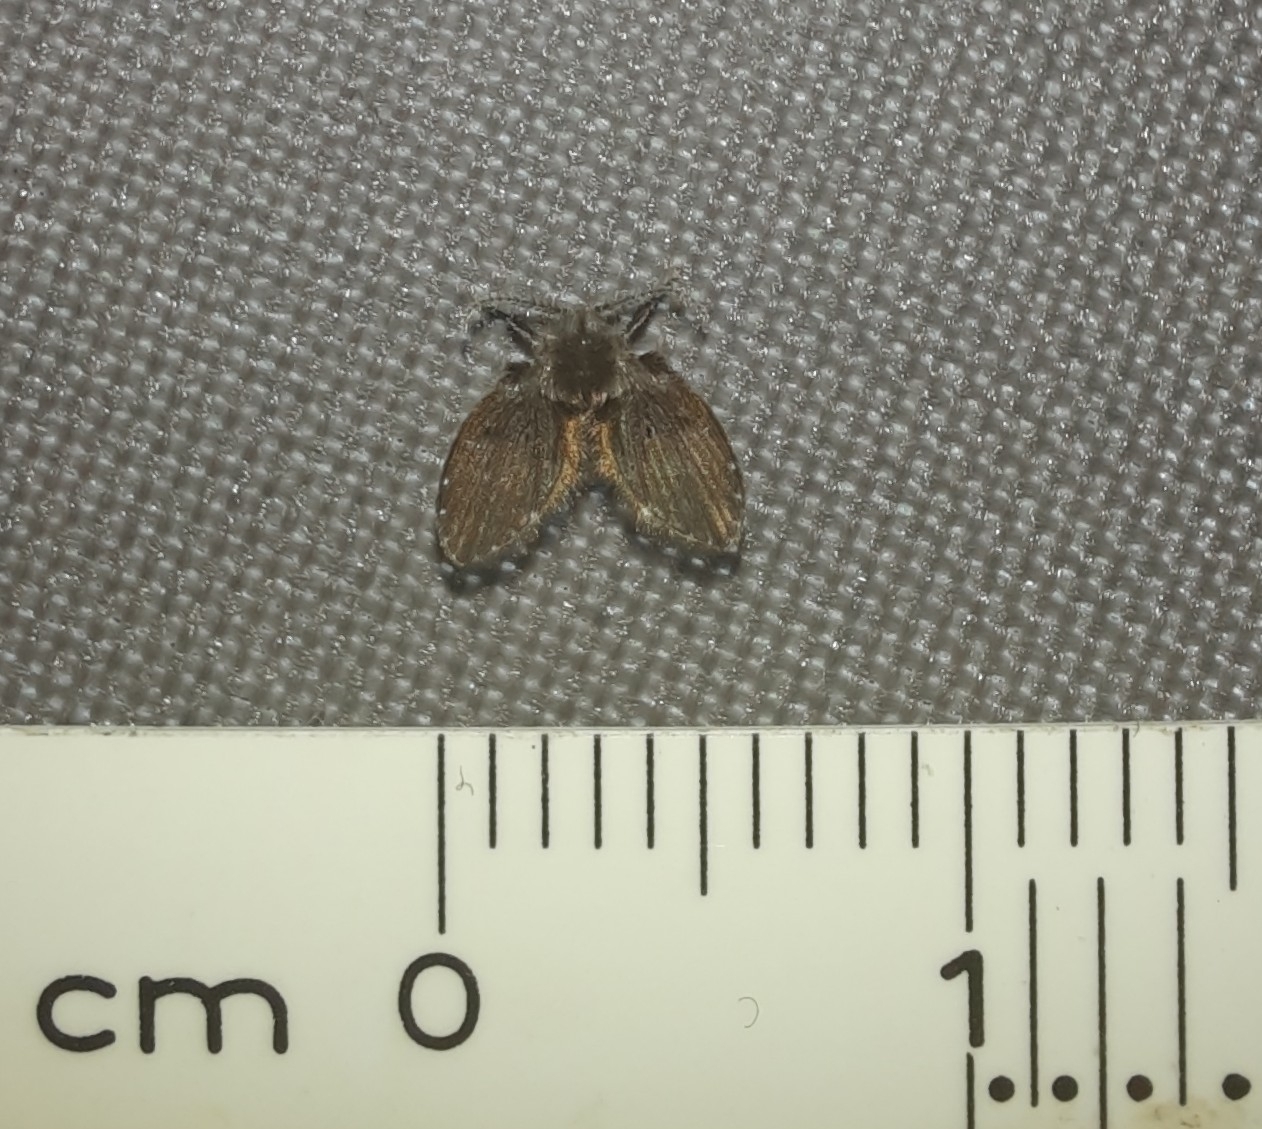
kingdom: Animalia
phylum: Arthropoda
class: Insecta
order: Diptera
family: Psychodidae
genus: Clogmia
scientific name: Clogmia albipunctatus
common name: White-spotted moth fly
